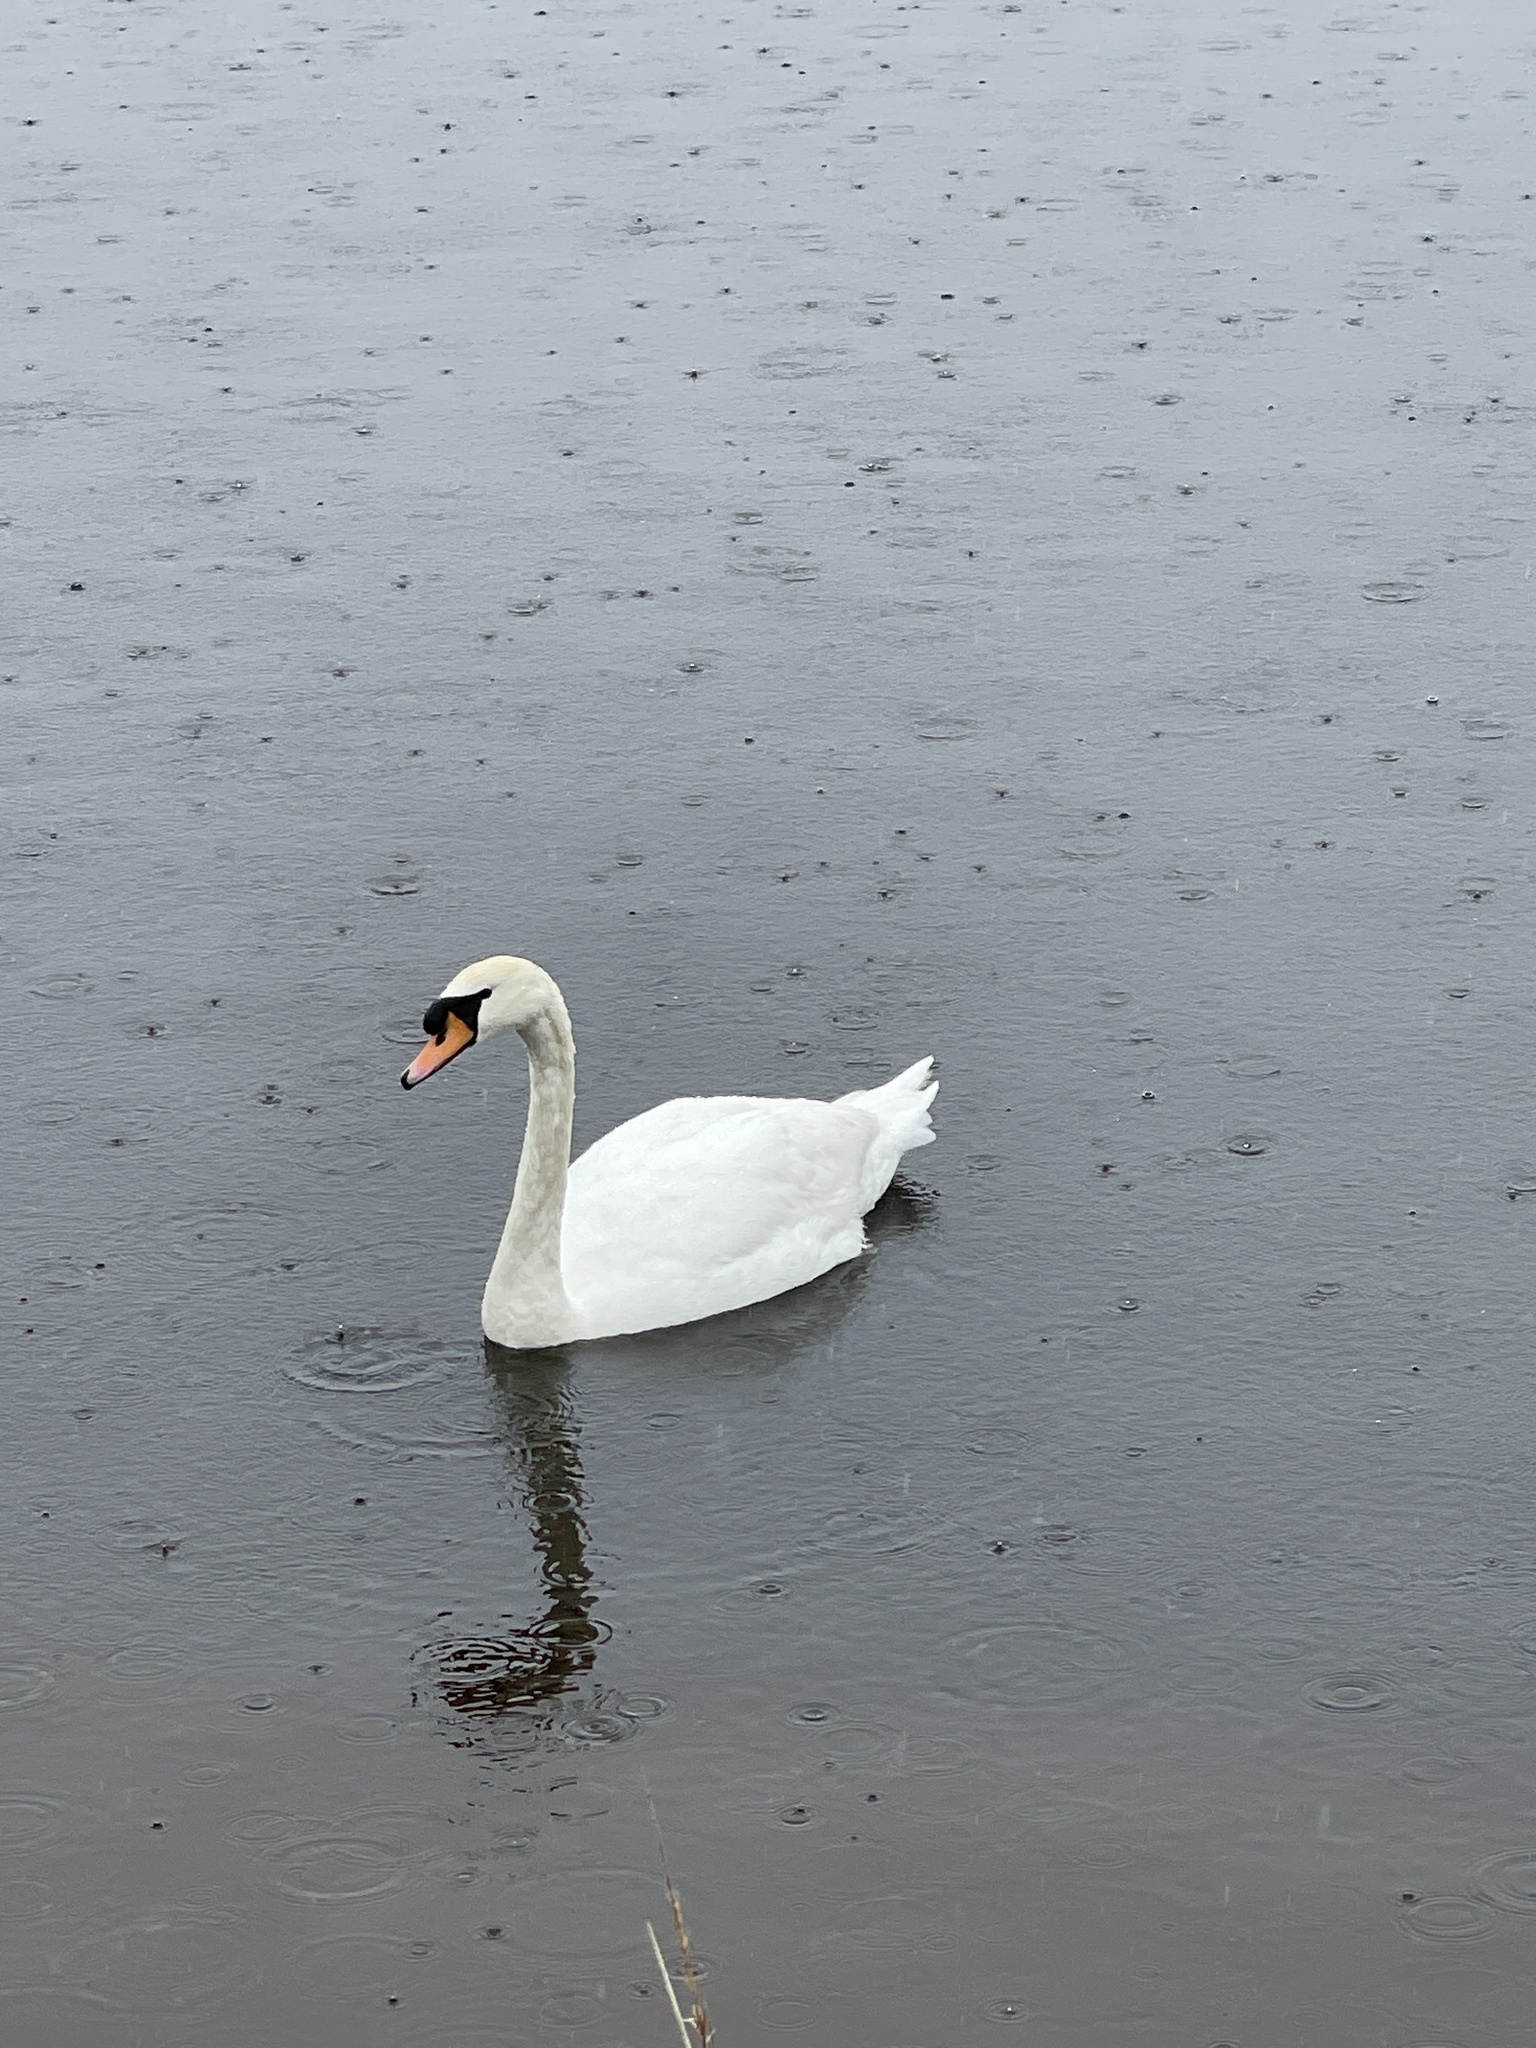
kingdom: Animalia
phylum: Chordata
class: Aves
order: Anseriformes
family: Anatidae
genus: Cygnus
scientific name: Cygnus olor
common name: Mute swan
